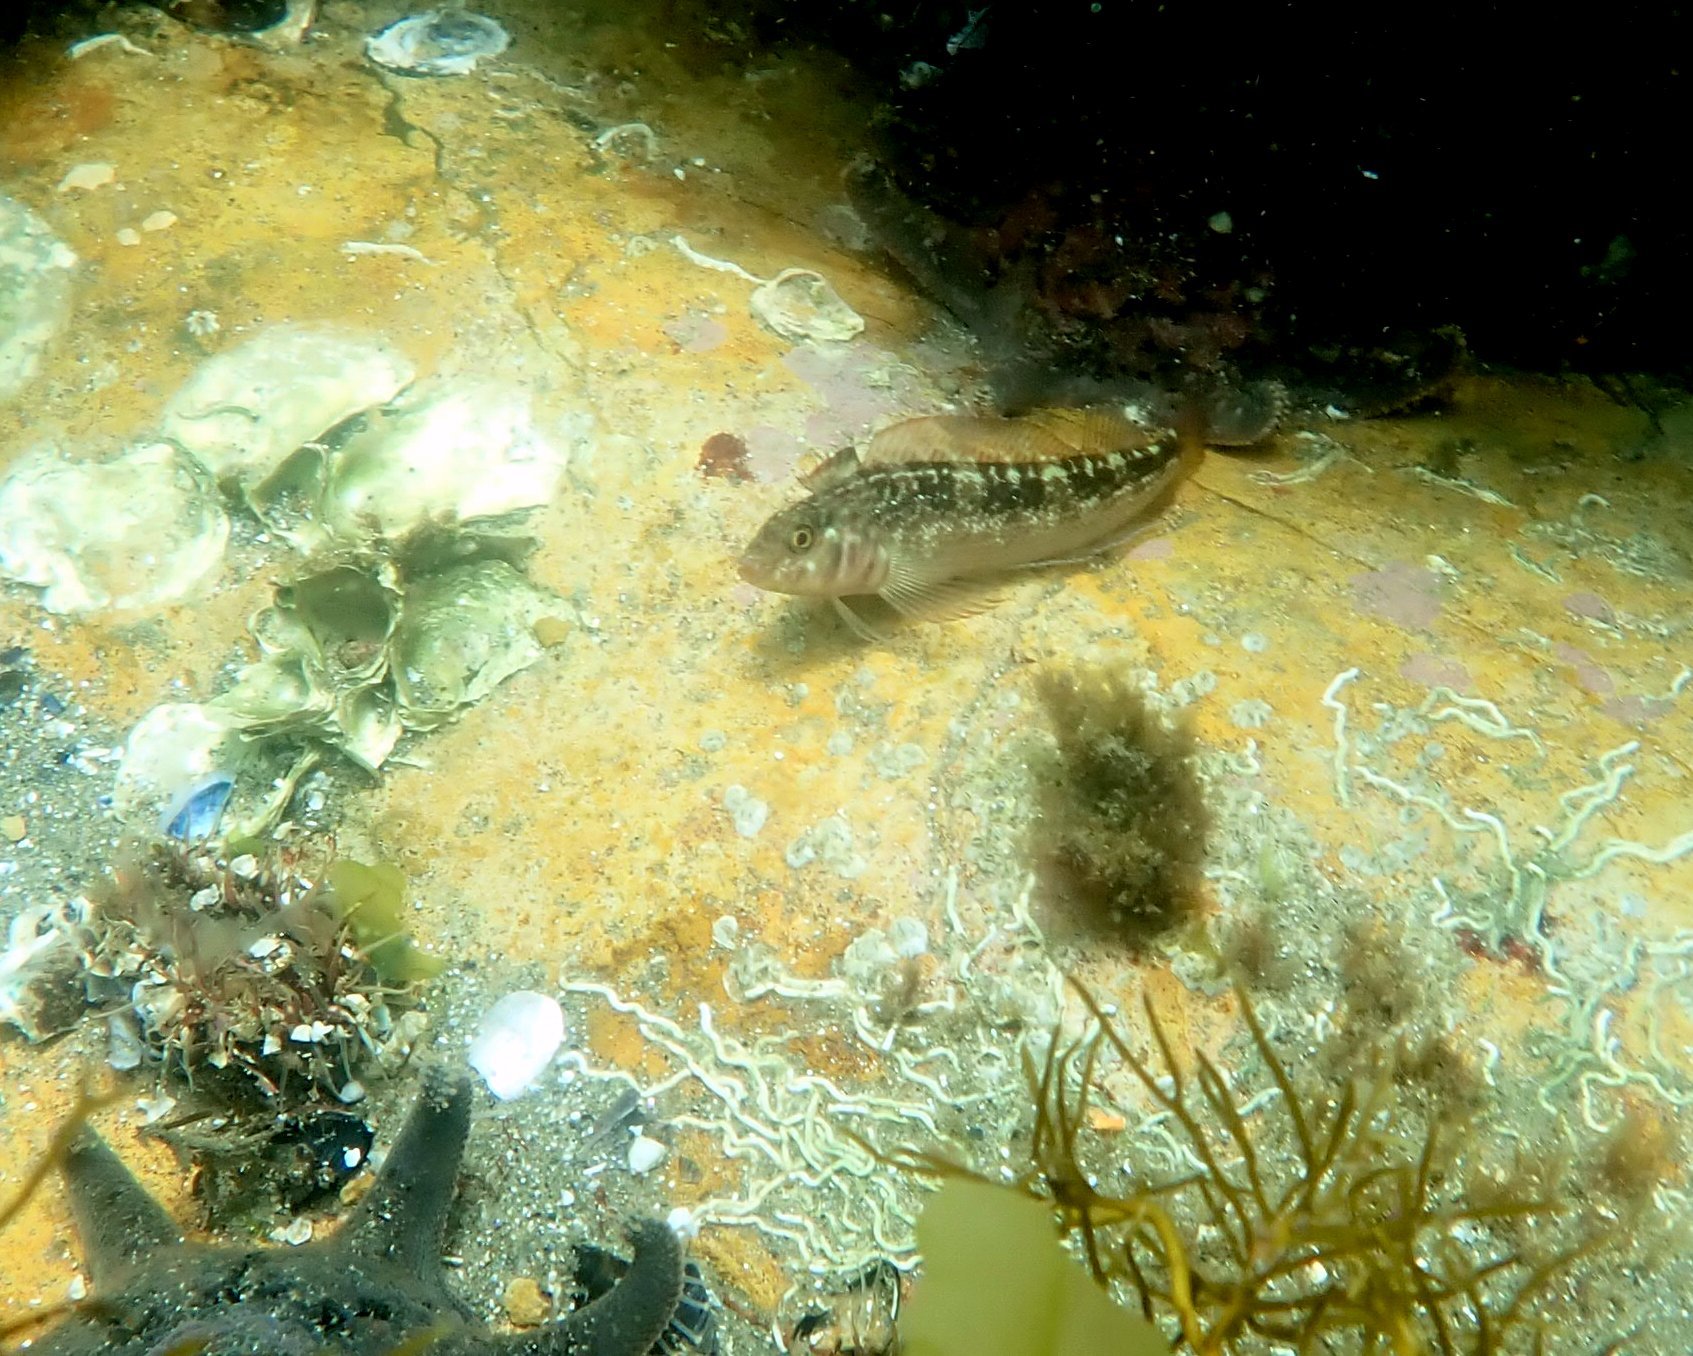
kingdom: Animalia
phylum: Chordata
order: Perciformes
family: Tripterygiidae
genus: Forsterygion
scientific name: Forsterygion varium
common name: Variable triplefin
